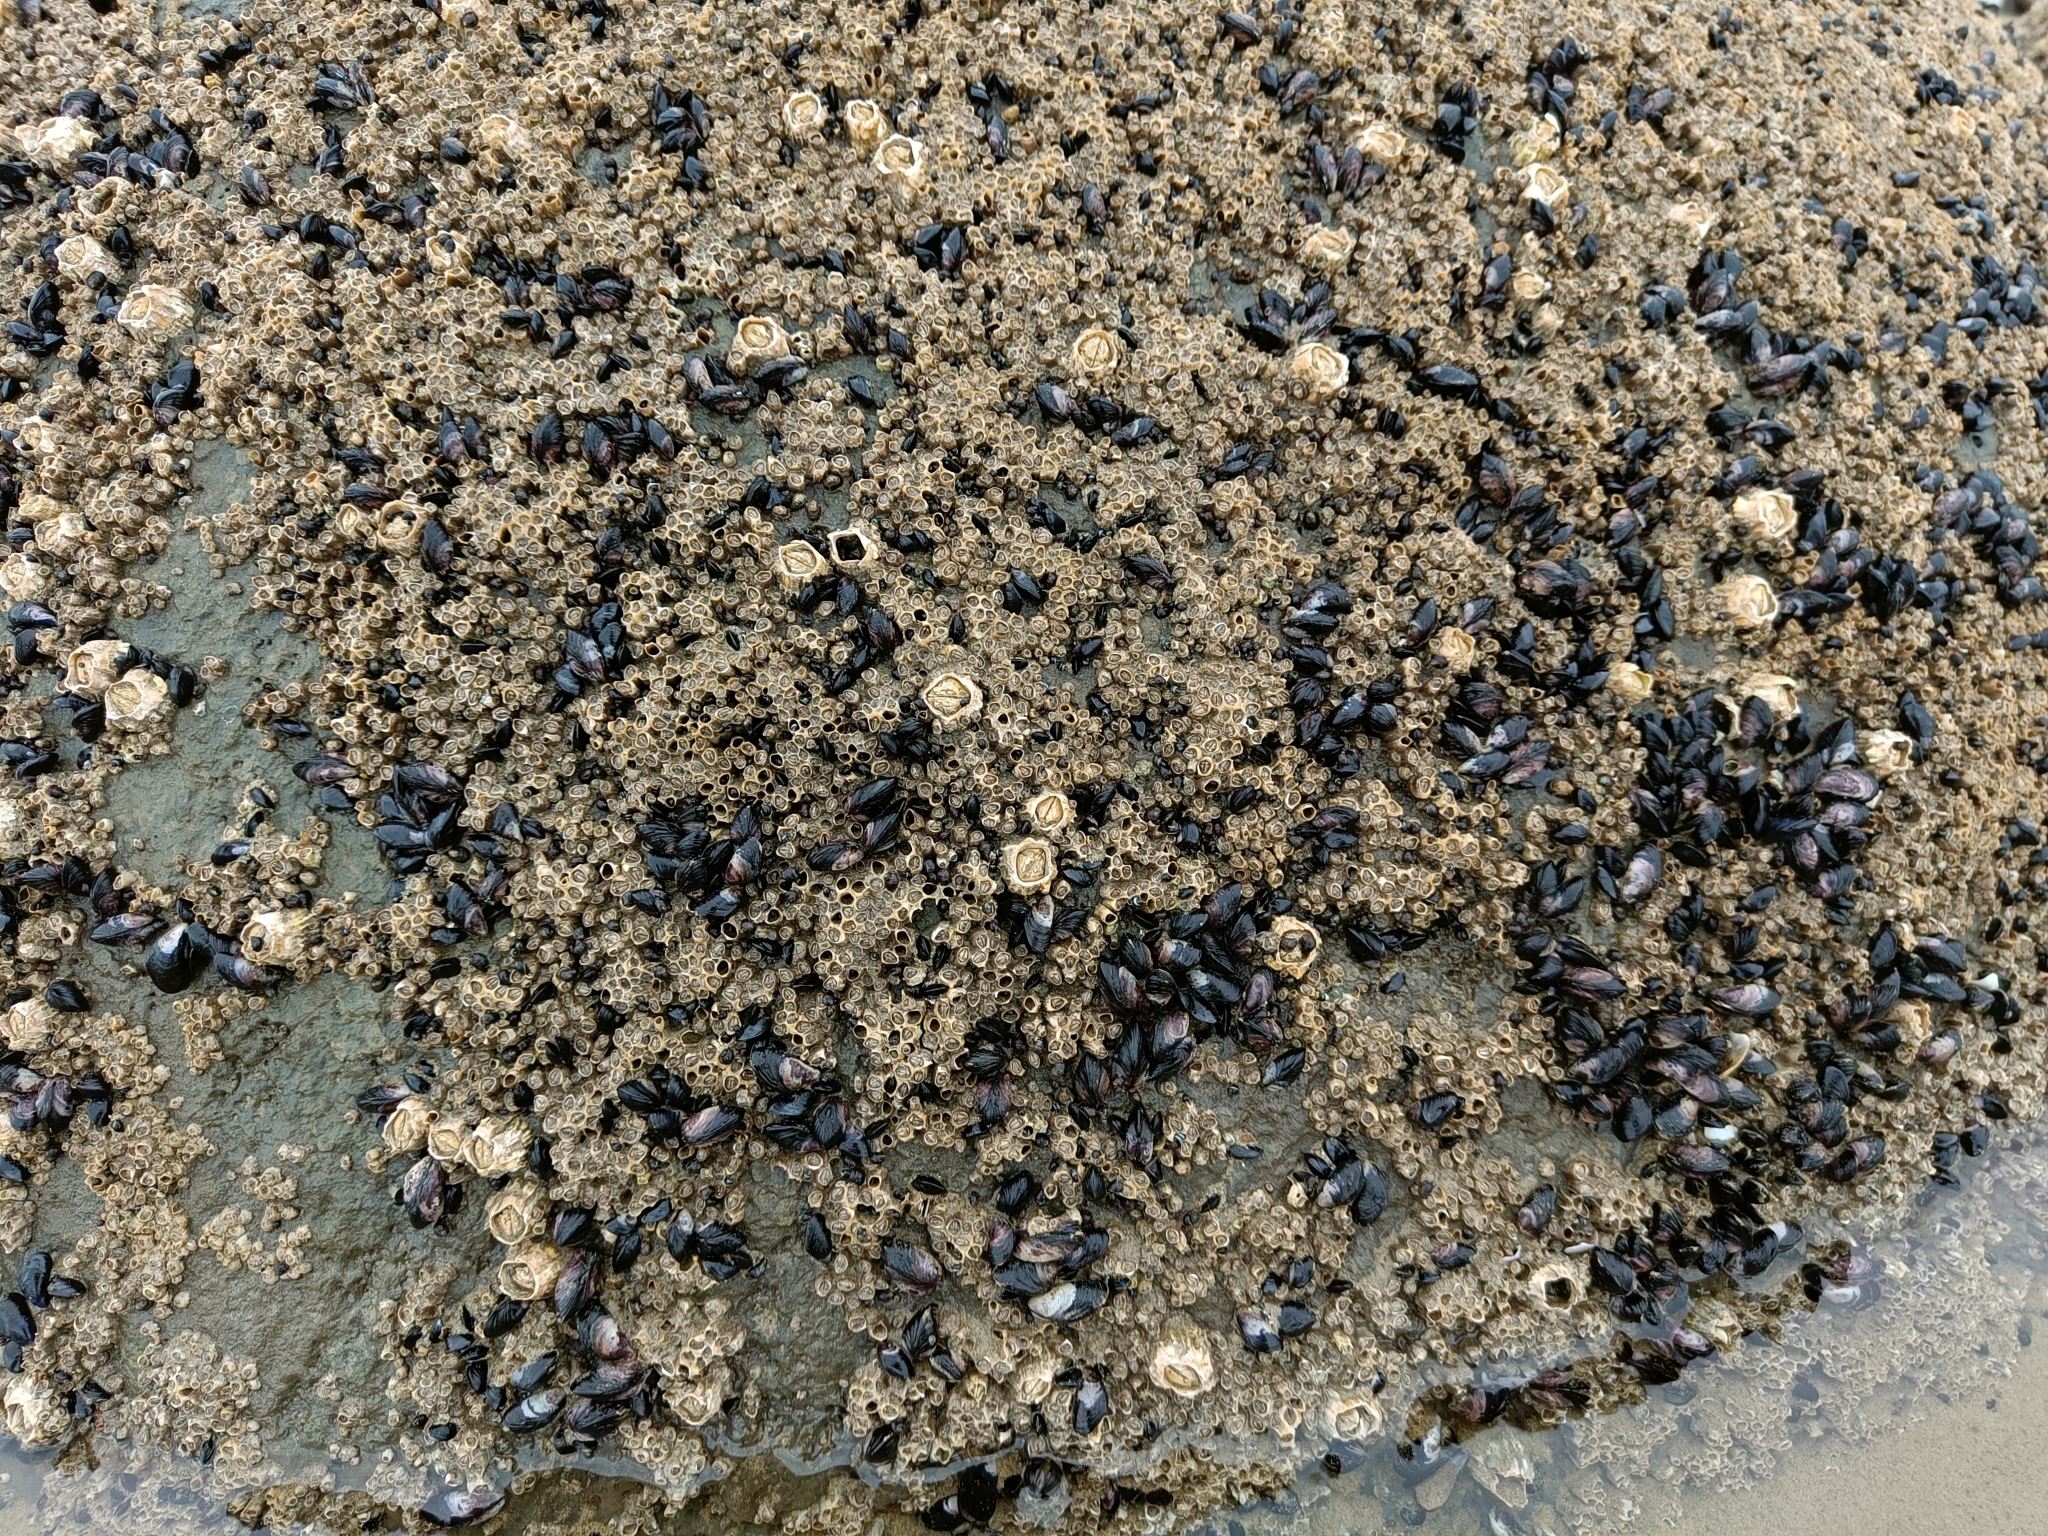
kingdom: Animalia
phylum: Mollusca
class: Bivalvia
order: Mytilida
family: Mytilidae
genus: Xenostrobus
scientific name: Xenostrobus neozelanicus
